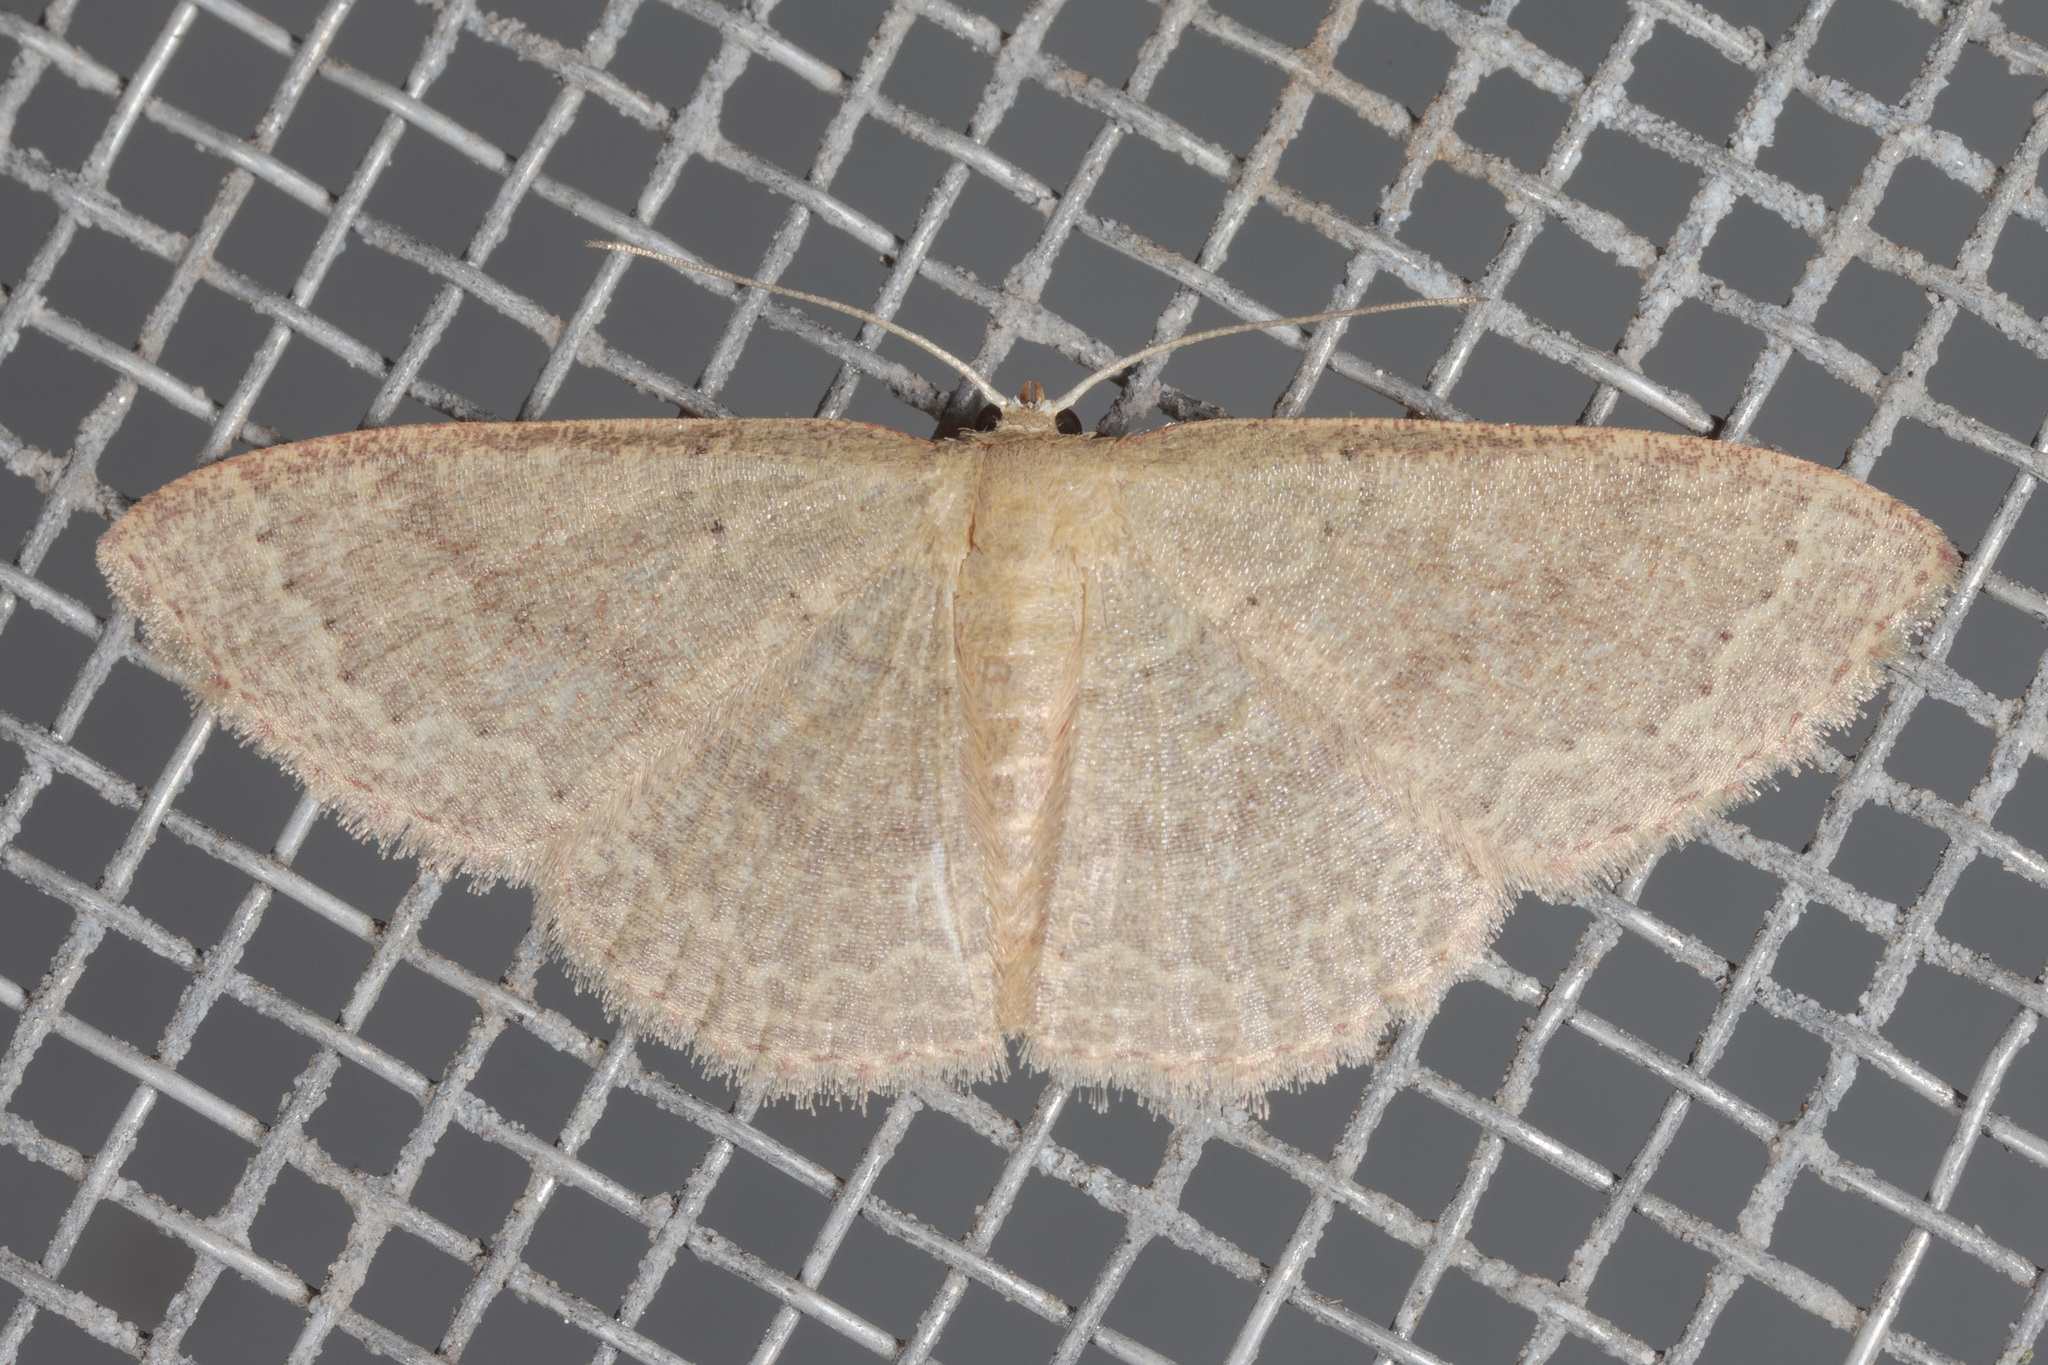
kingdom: Animalia
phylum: Arthropoda
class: Insecta
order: Lepidoptera
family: Geometridae
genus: Pleuroprucha
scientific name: Pleuroprucha insulsaria
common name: Common tan wave
